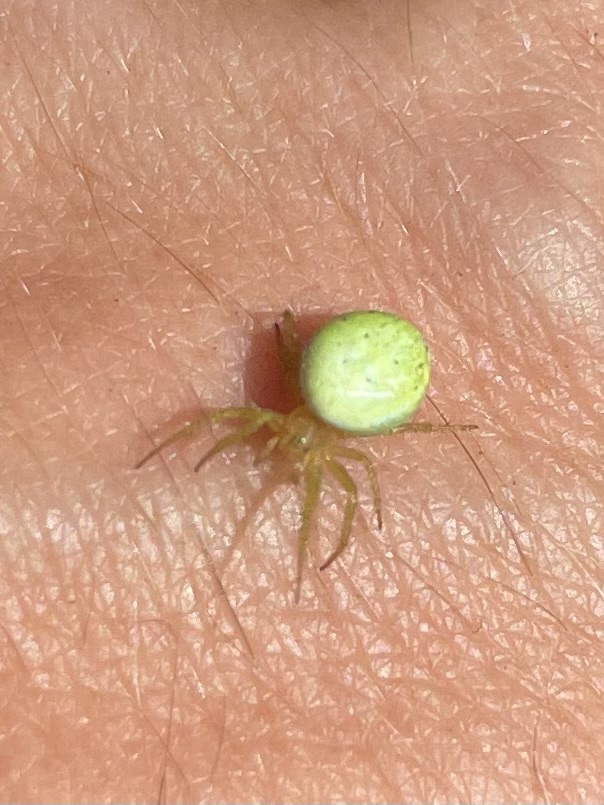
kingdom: Animalia
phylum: Arthropoda
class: Arachnida
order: Araneae
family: Araneidae
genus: Araniella
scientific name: Araniella
